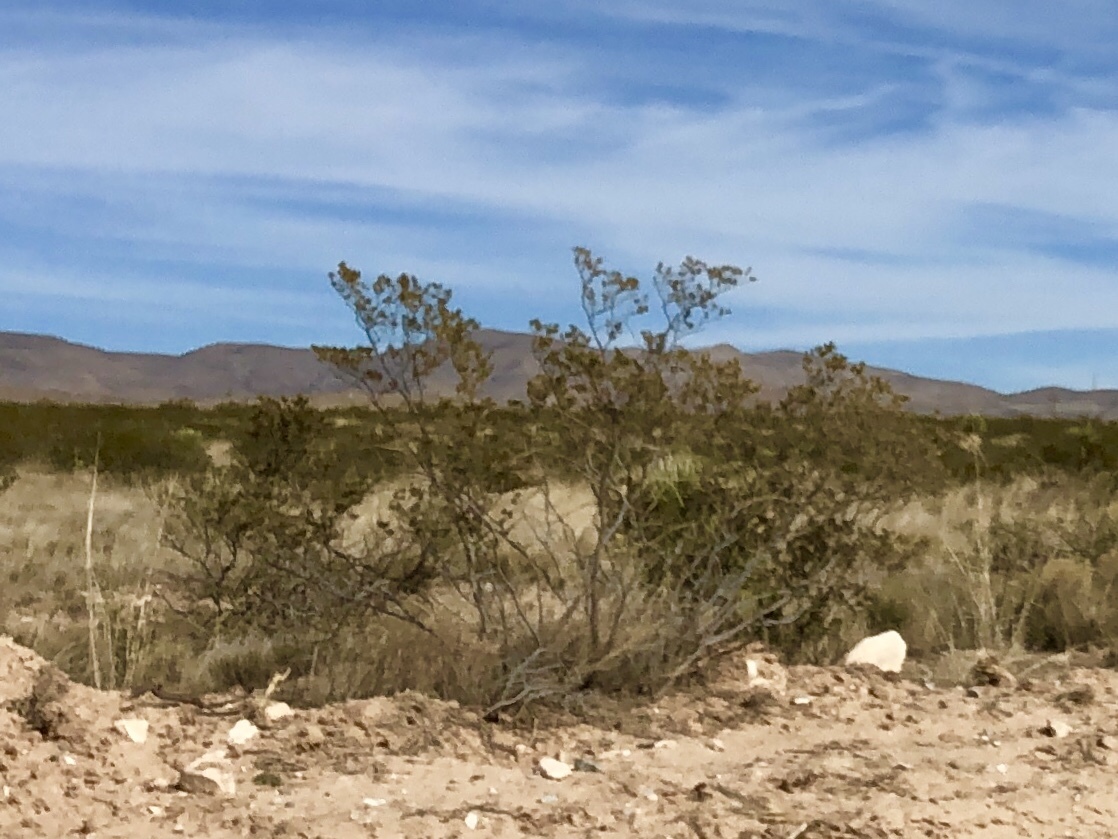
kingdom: Plantae
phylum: Tracheophyta
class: Magnoliopsida
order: Zygophyllales
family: Zygophyllaceae
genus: Larrea
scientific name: Larrea tridentata
